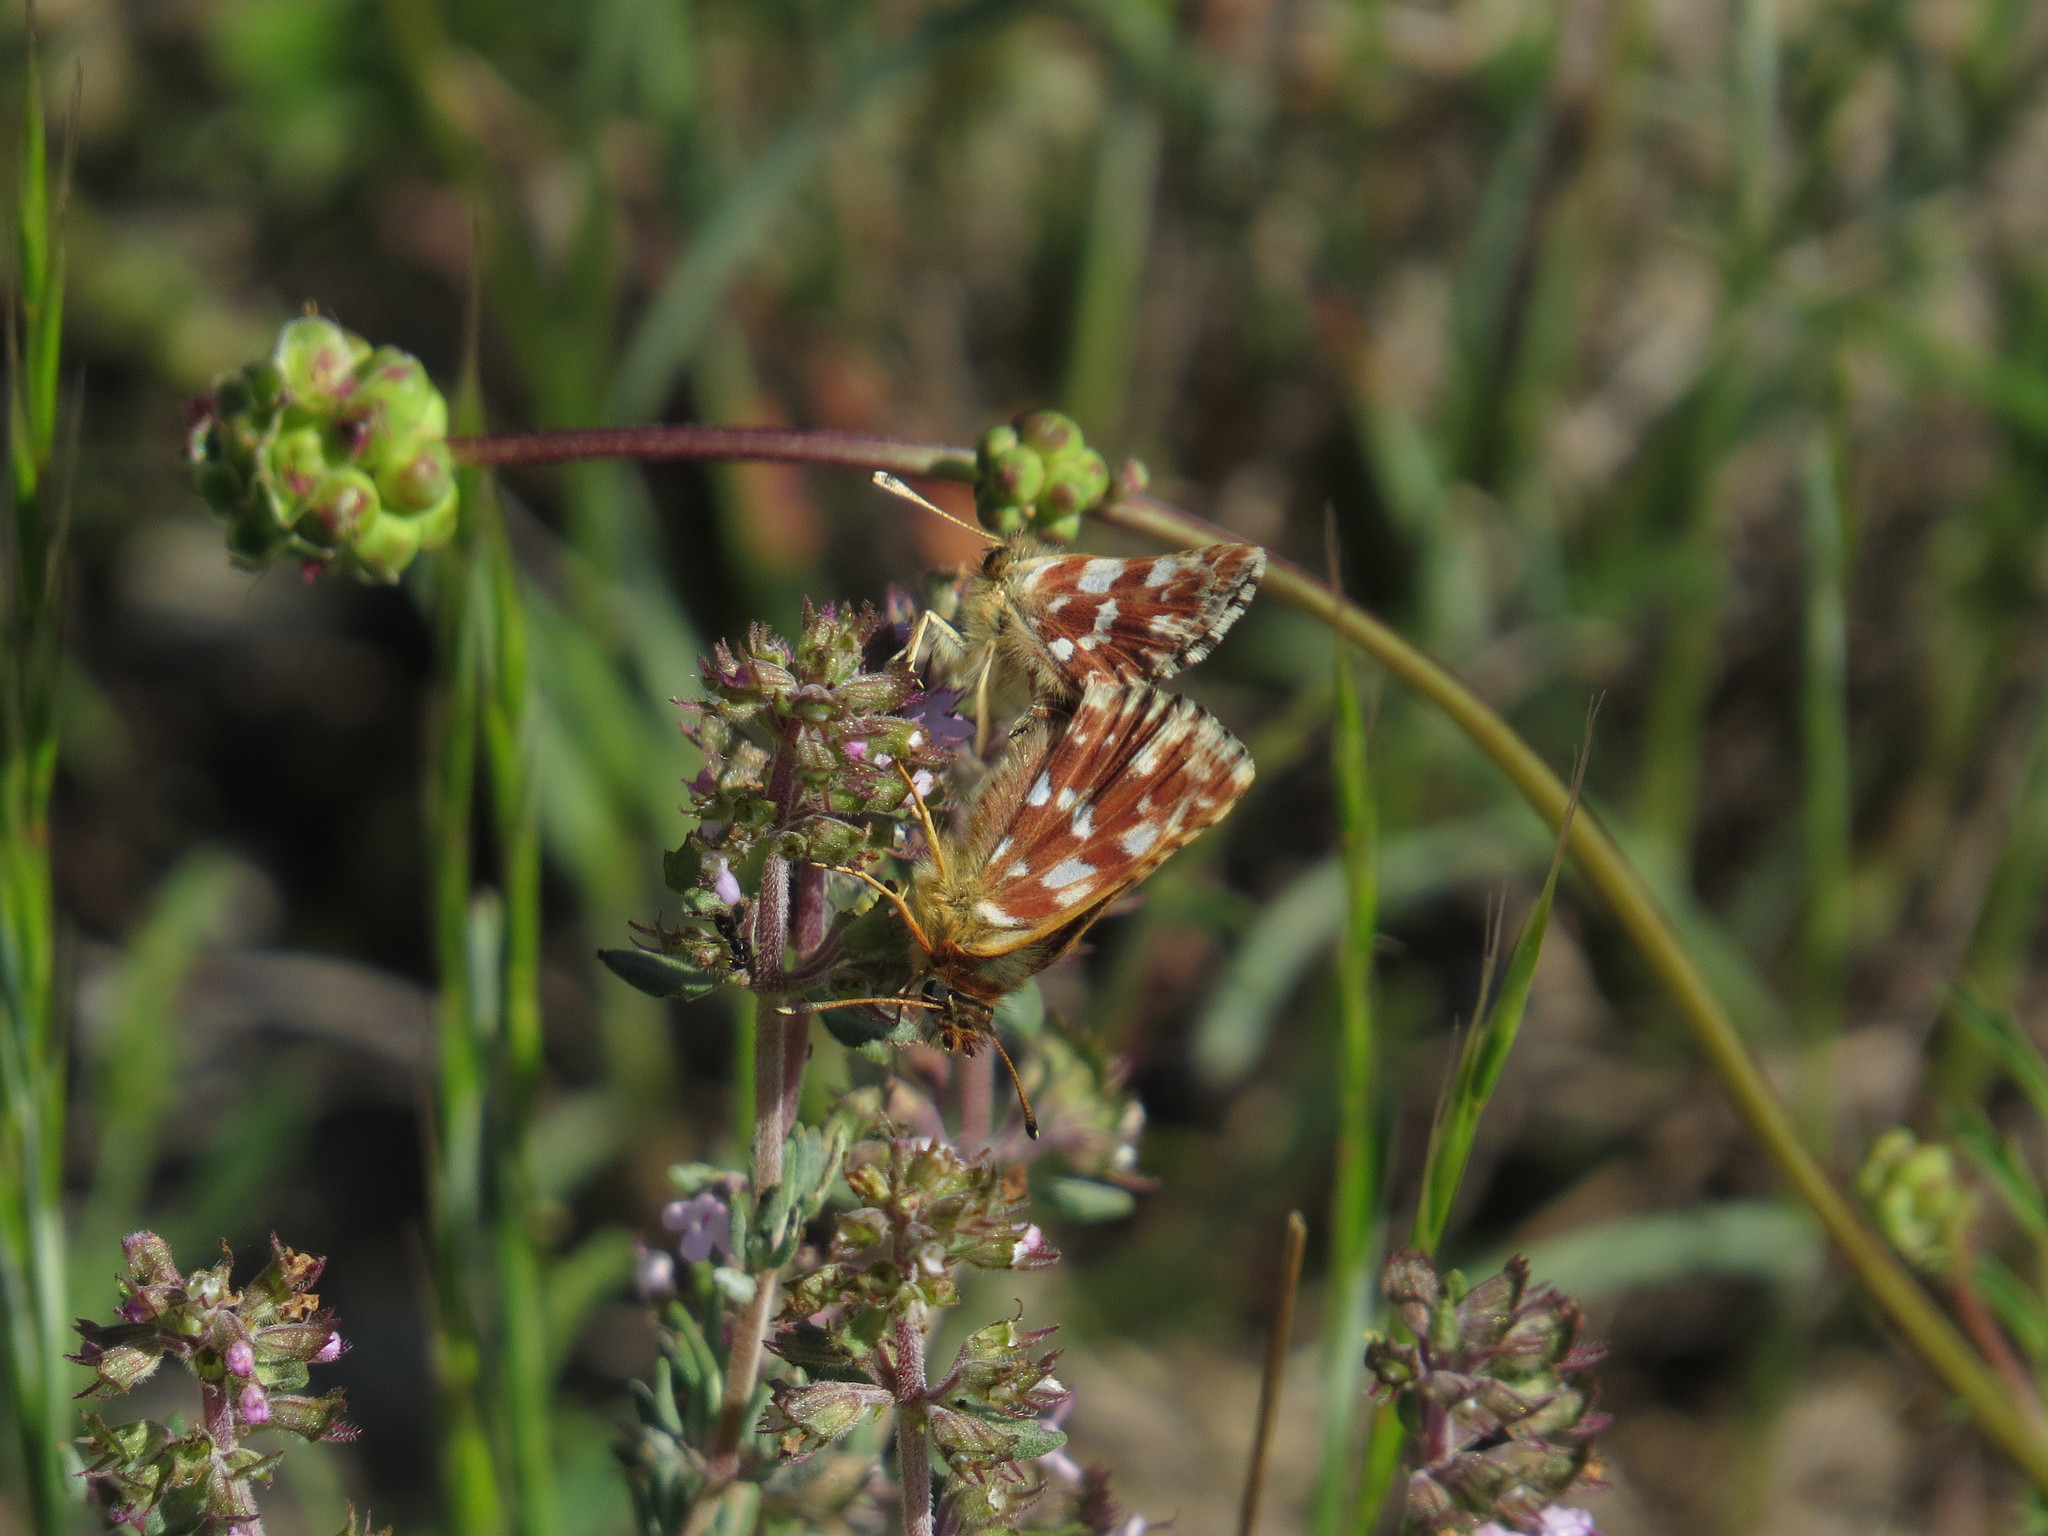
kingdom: Animalia
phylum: Arthropoda
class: Insecta
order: Lepidoptera
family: Hesperiidae
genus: Spialia
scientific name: Spialia sertorius
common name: Red underwing skipper
